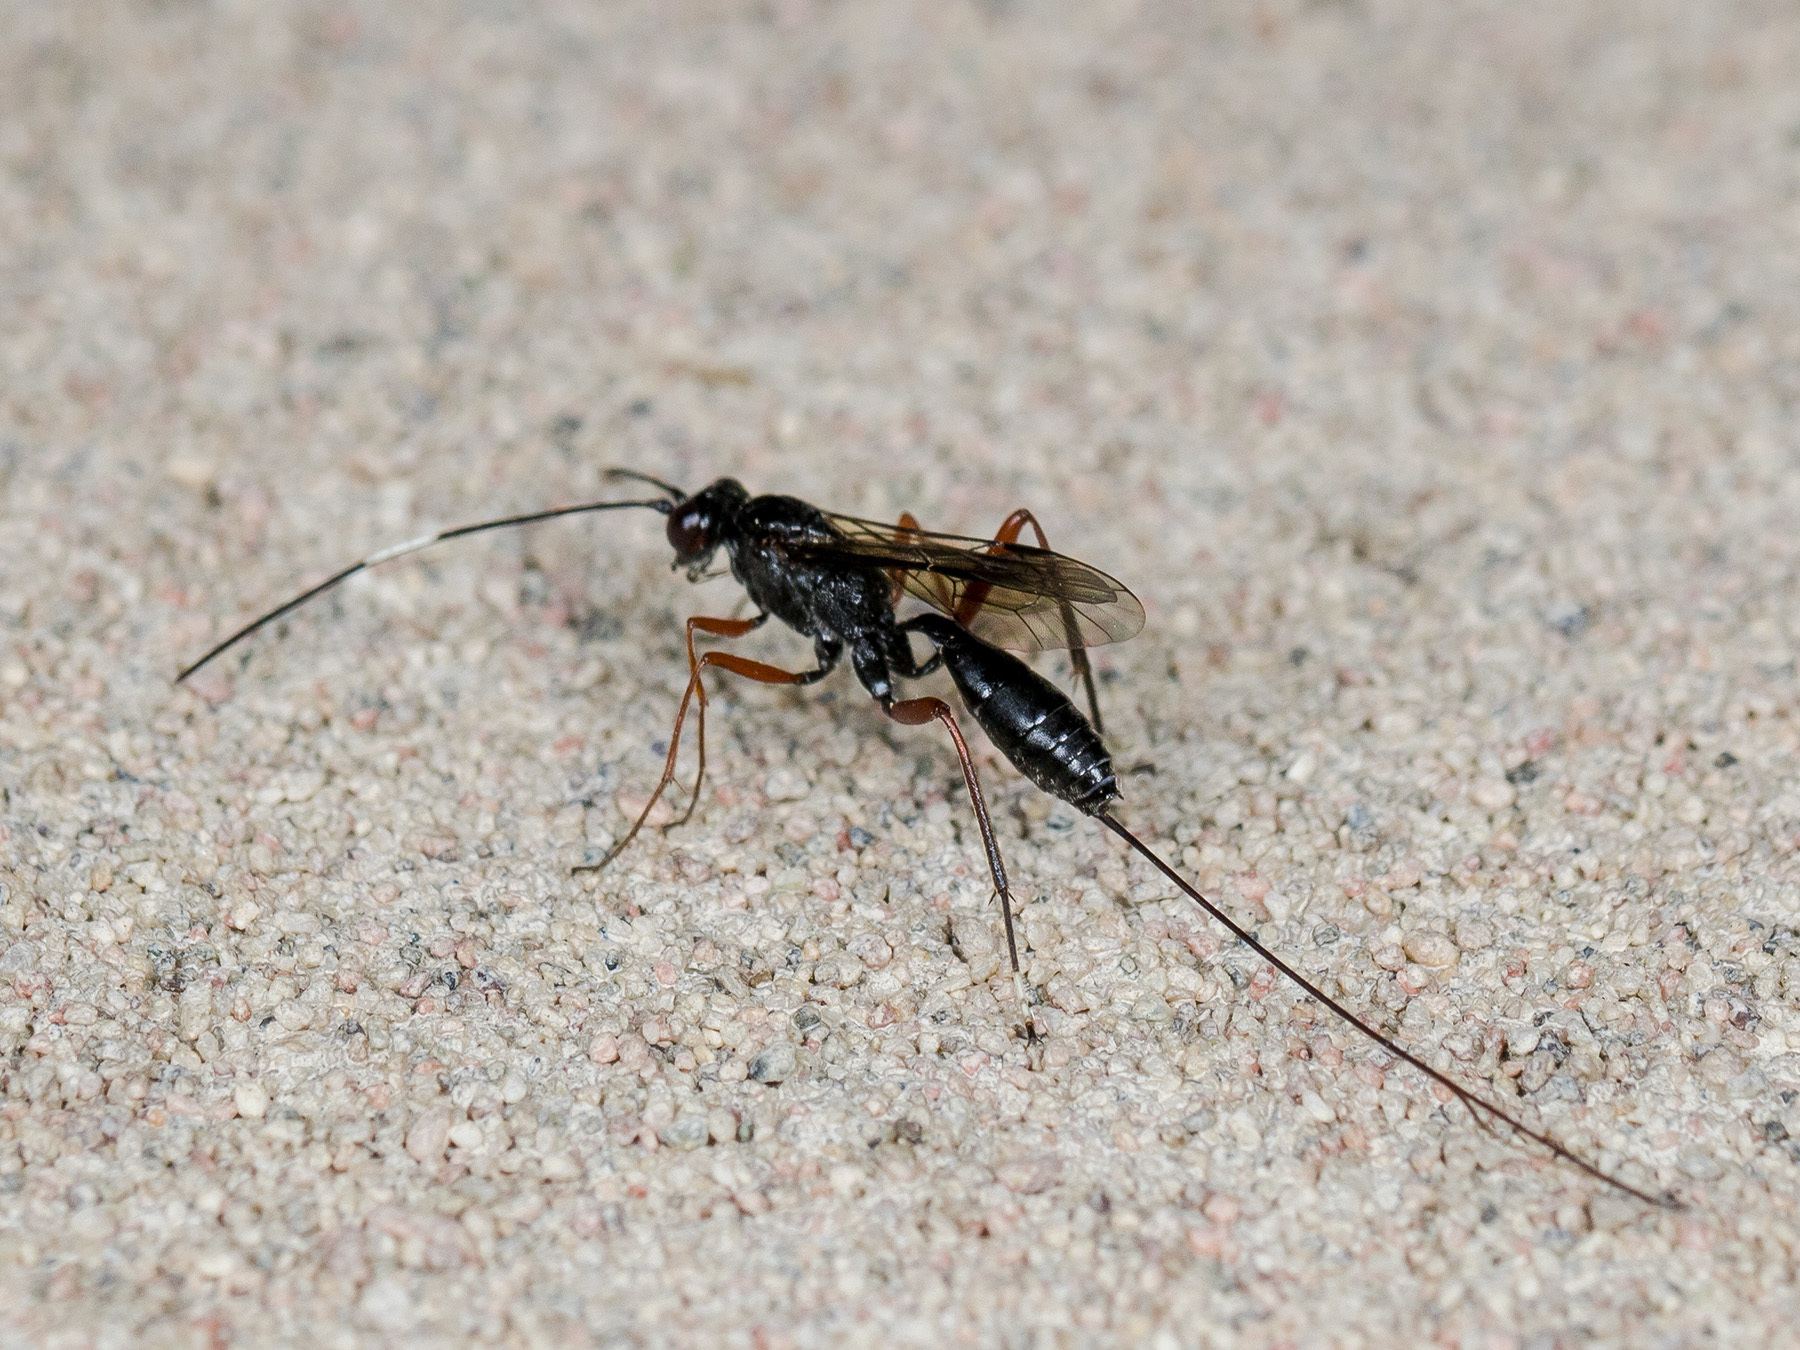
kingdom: Animalia
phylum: Arthropoda
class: Insecta
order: Hymenoptera
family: Ichneumonidae
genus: Stenarella
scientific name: Stenarella domator
